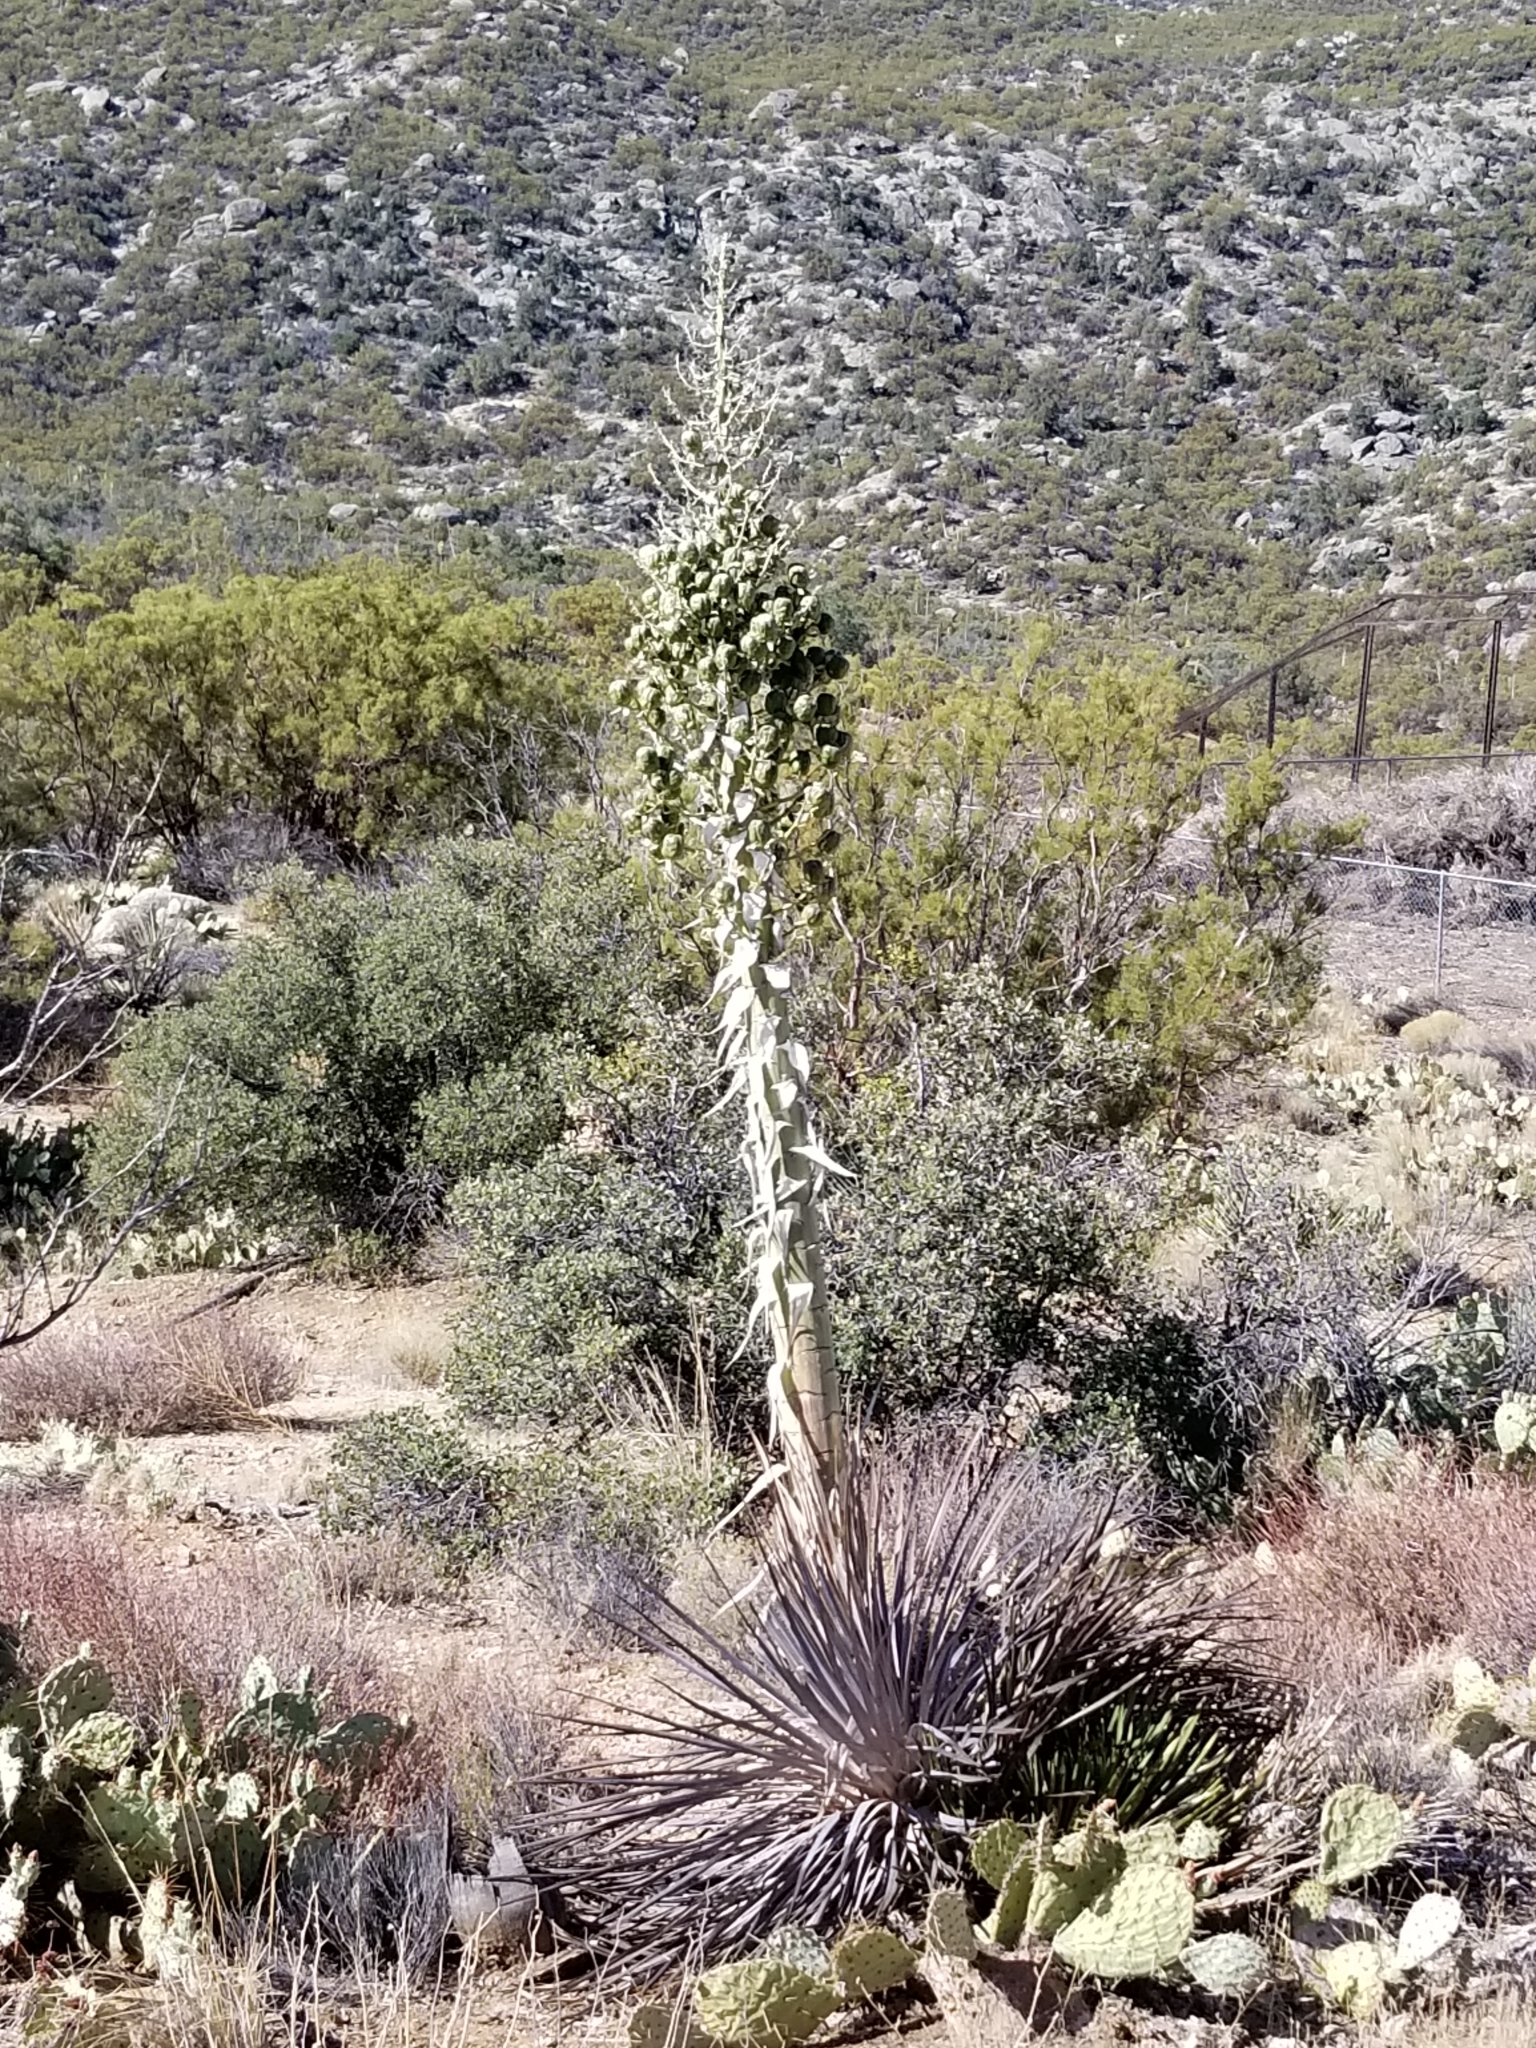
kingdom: Plantae
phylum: Tracheophyta
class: Liliopsida
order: Asparagales
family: Asparagaceae
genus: Hesperoyucca
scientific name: Hesperoyucca whipplei
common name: Our lord's-candle
